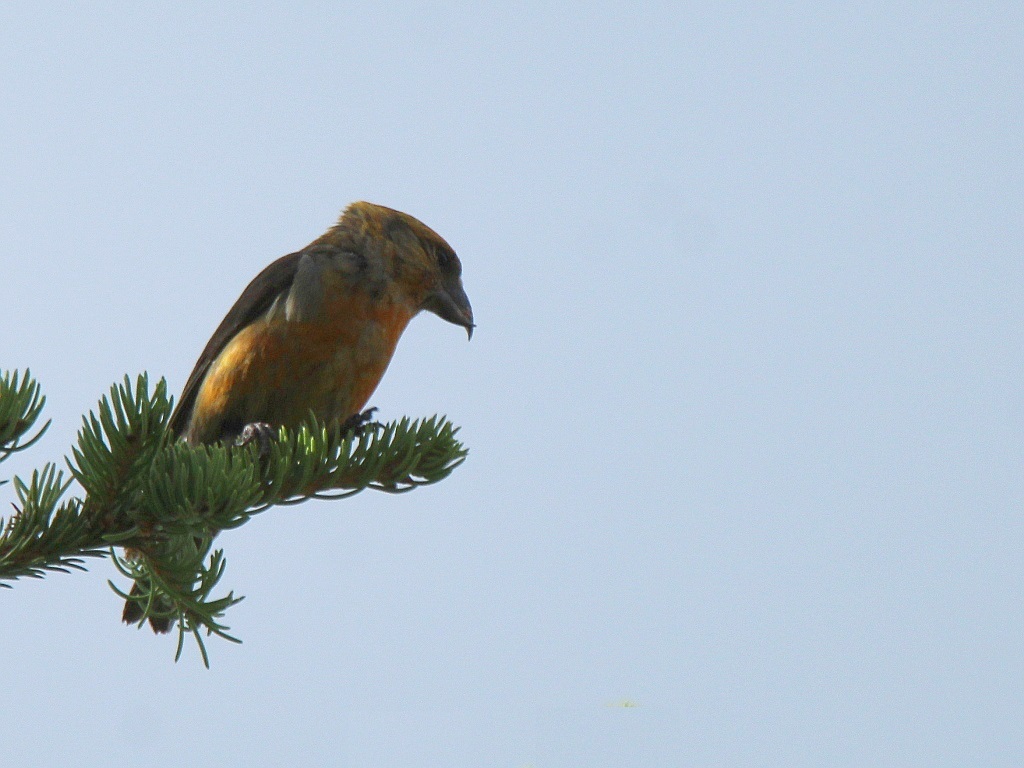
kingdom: Animalia
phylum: Chordata
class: Aves
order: Passeriformes
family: Fringillidae
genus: Loxia
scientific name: Loxia curvirostra
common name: Red crossbill
